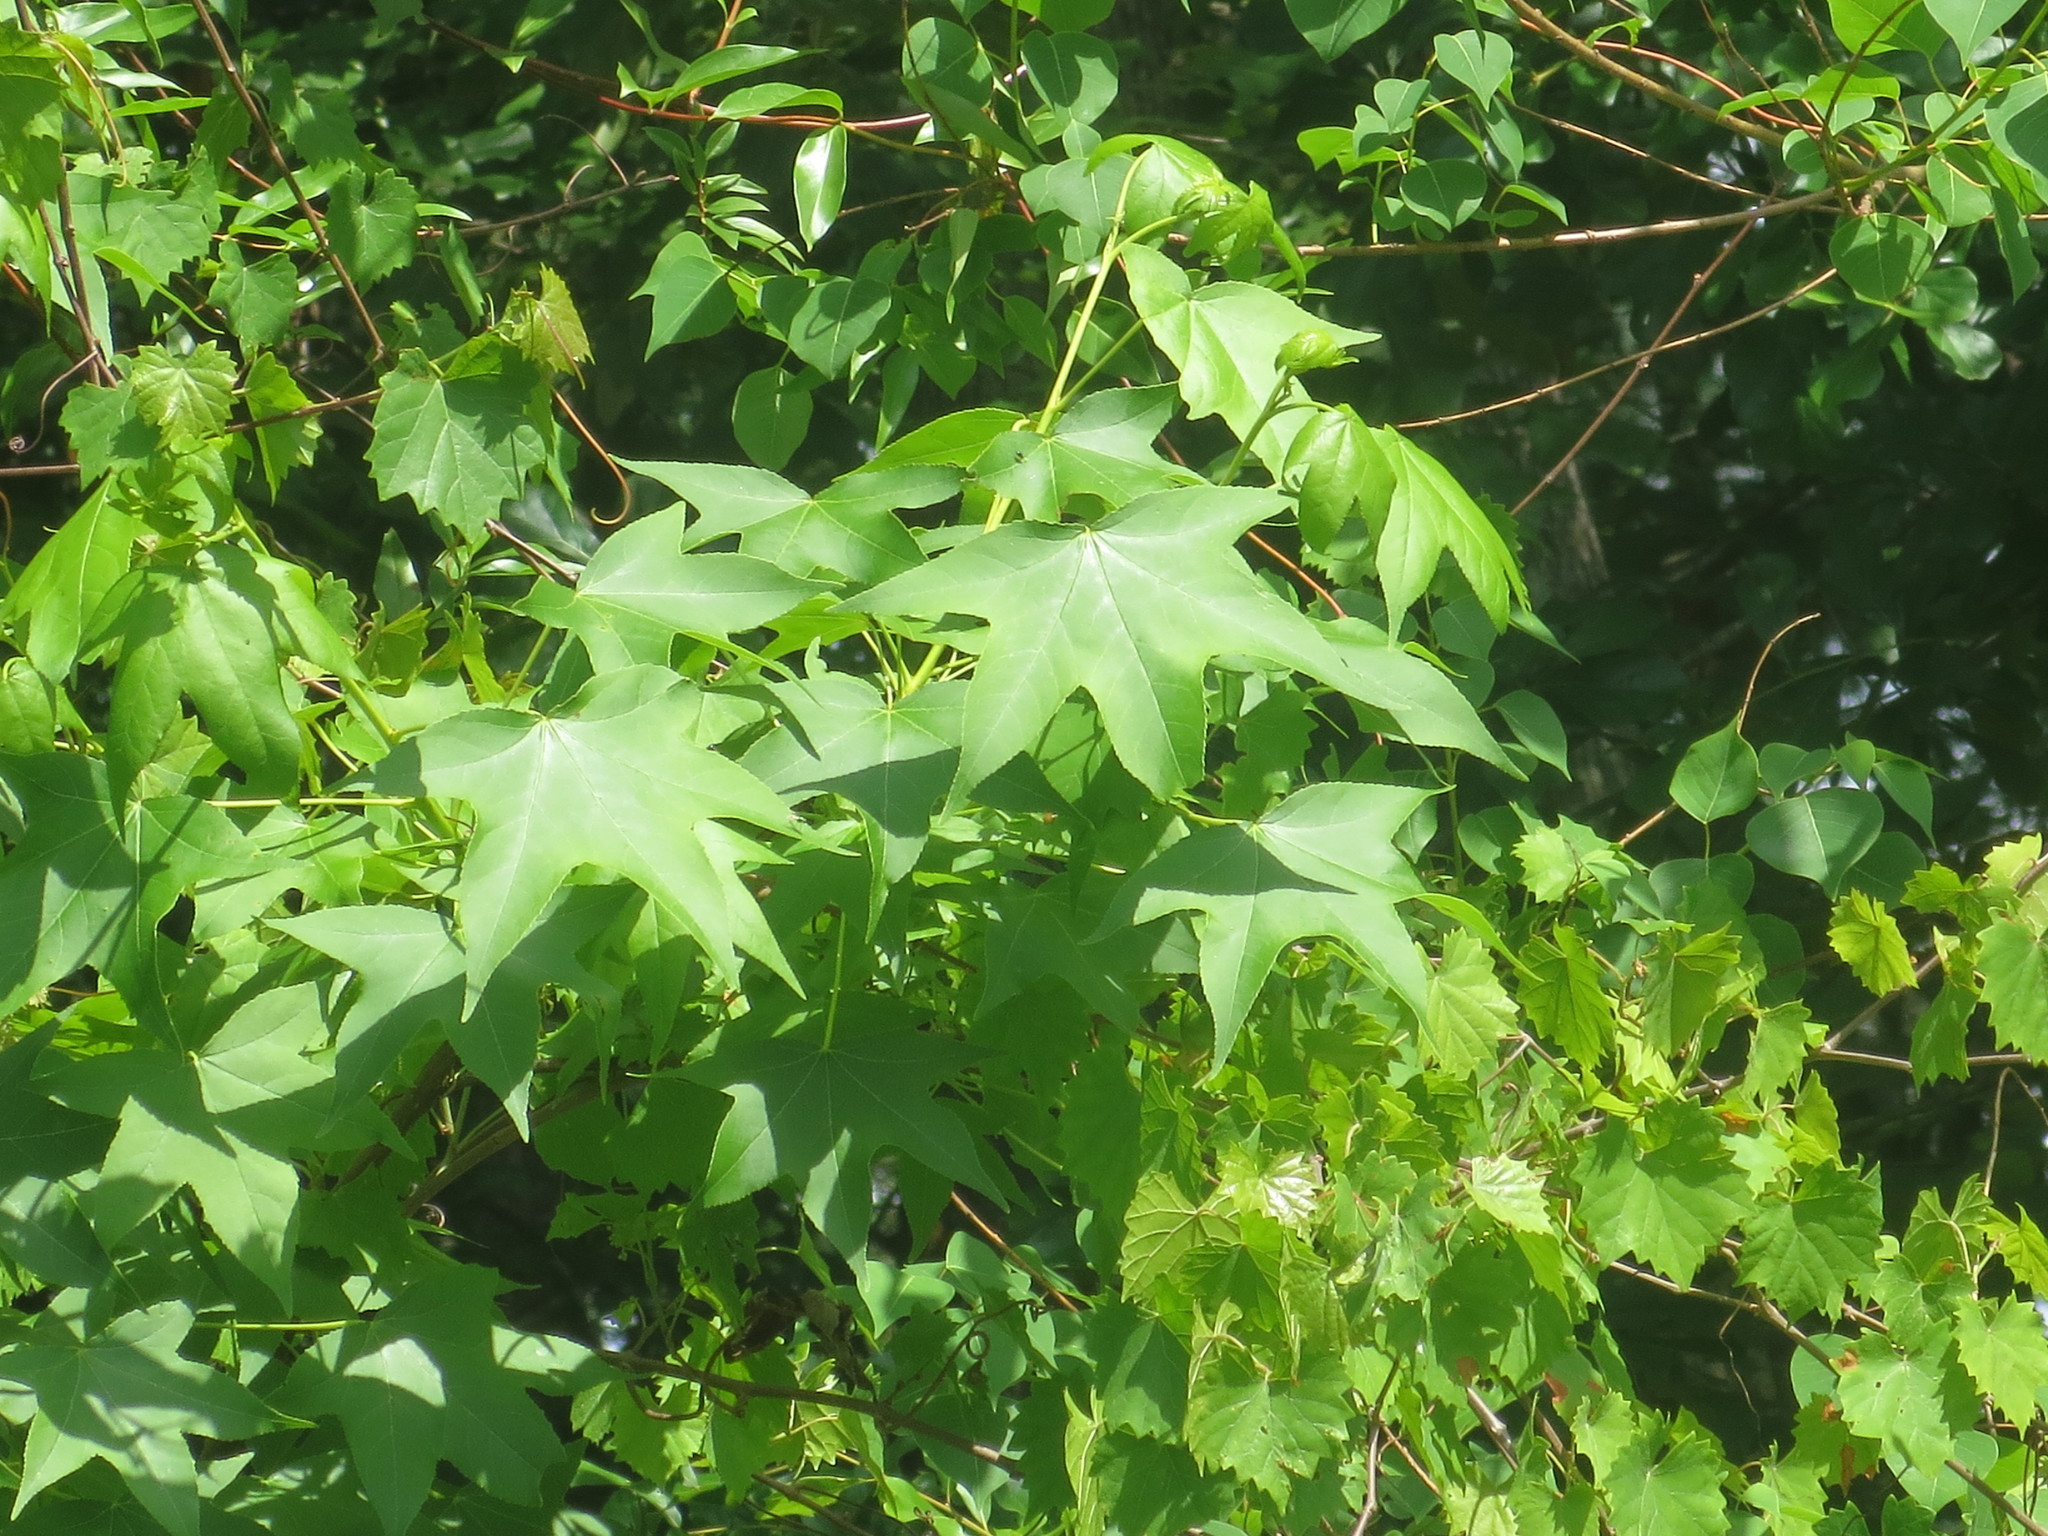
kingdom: Plantae
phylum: Tracheophyta
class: Magnoliopsida
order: Saxifragales
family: Altingiaceae
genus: Liquidambar
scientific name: Liquidambar styraciflua
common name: Sweet gum
